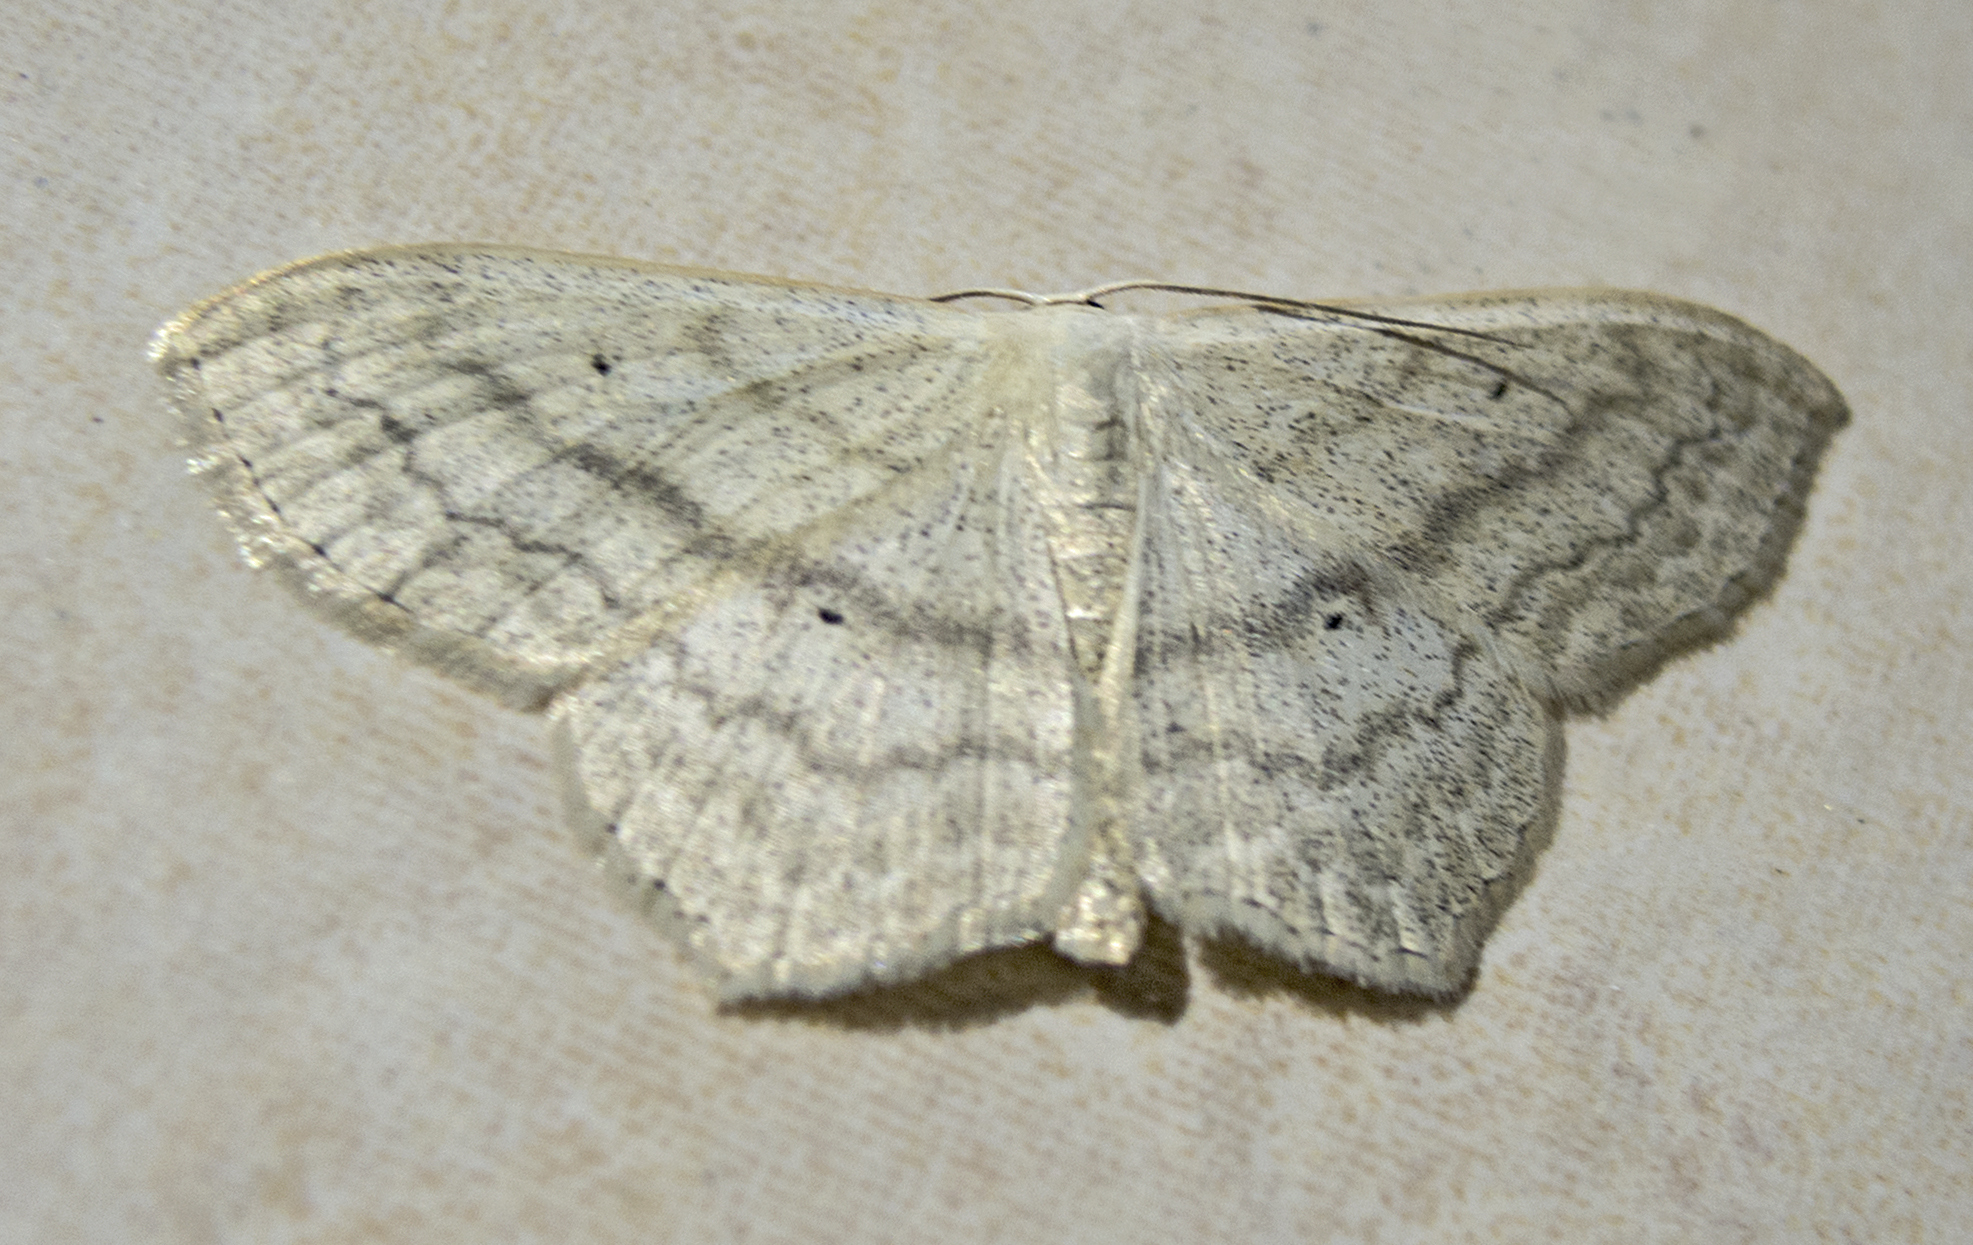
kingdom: Animalia
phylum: Arthropoda
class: Insecta
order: Lepidoptera
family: Geometridae
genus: Scopula
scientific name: Scopula nigropunctata
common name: Sub-angled wave
